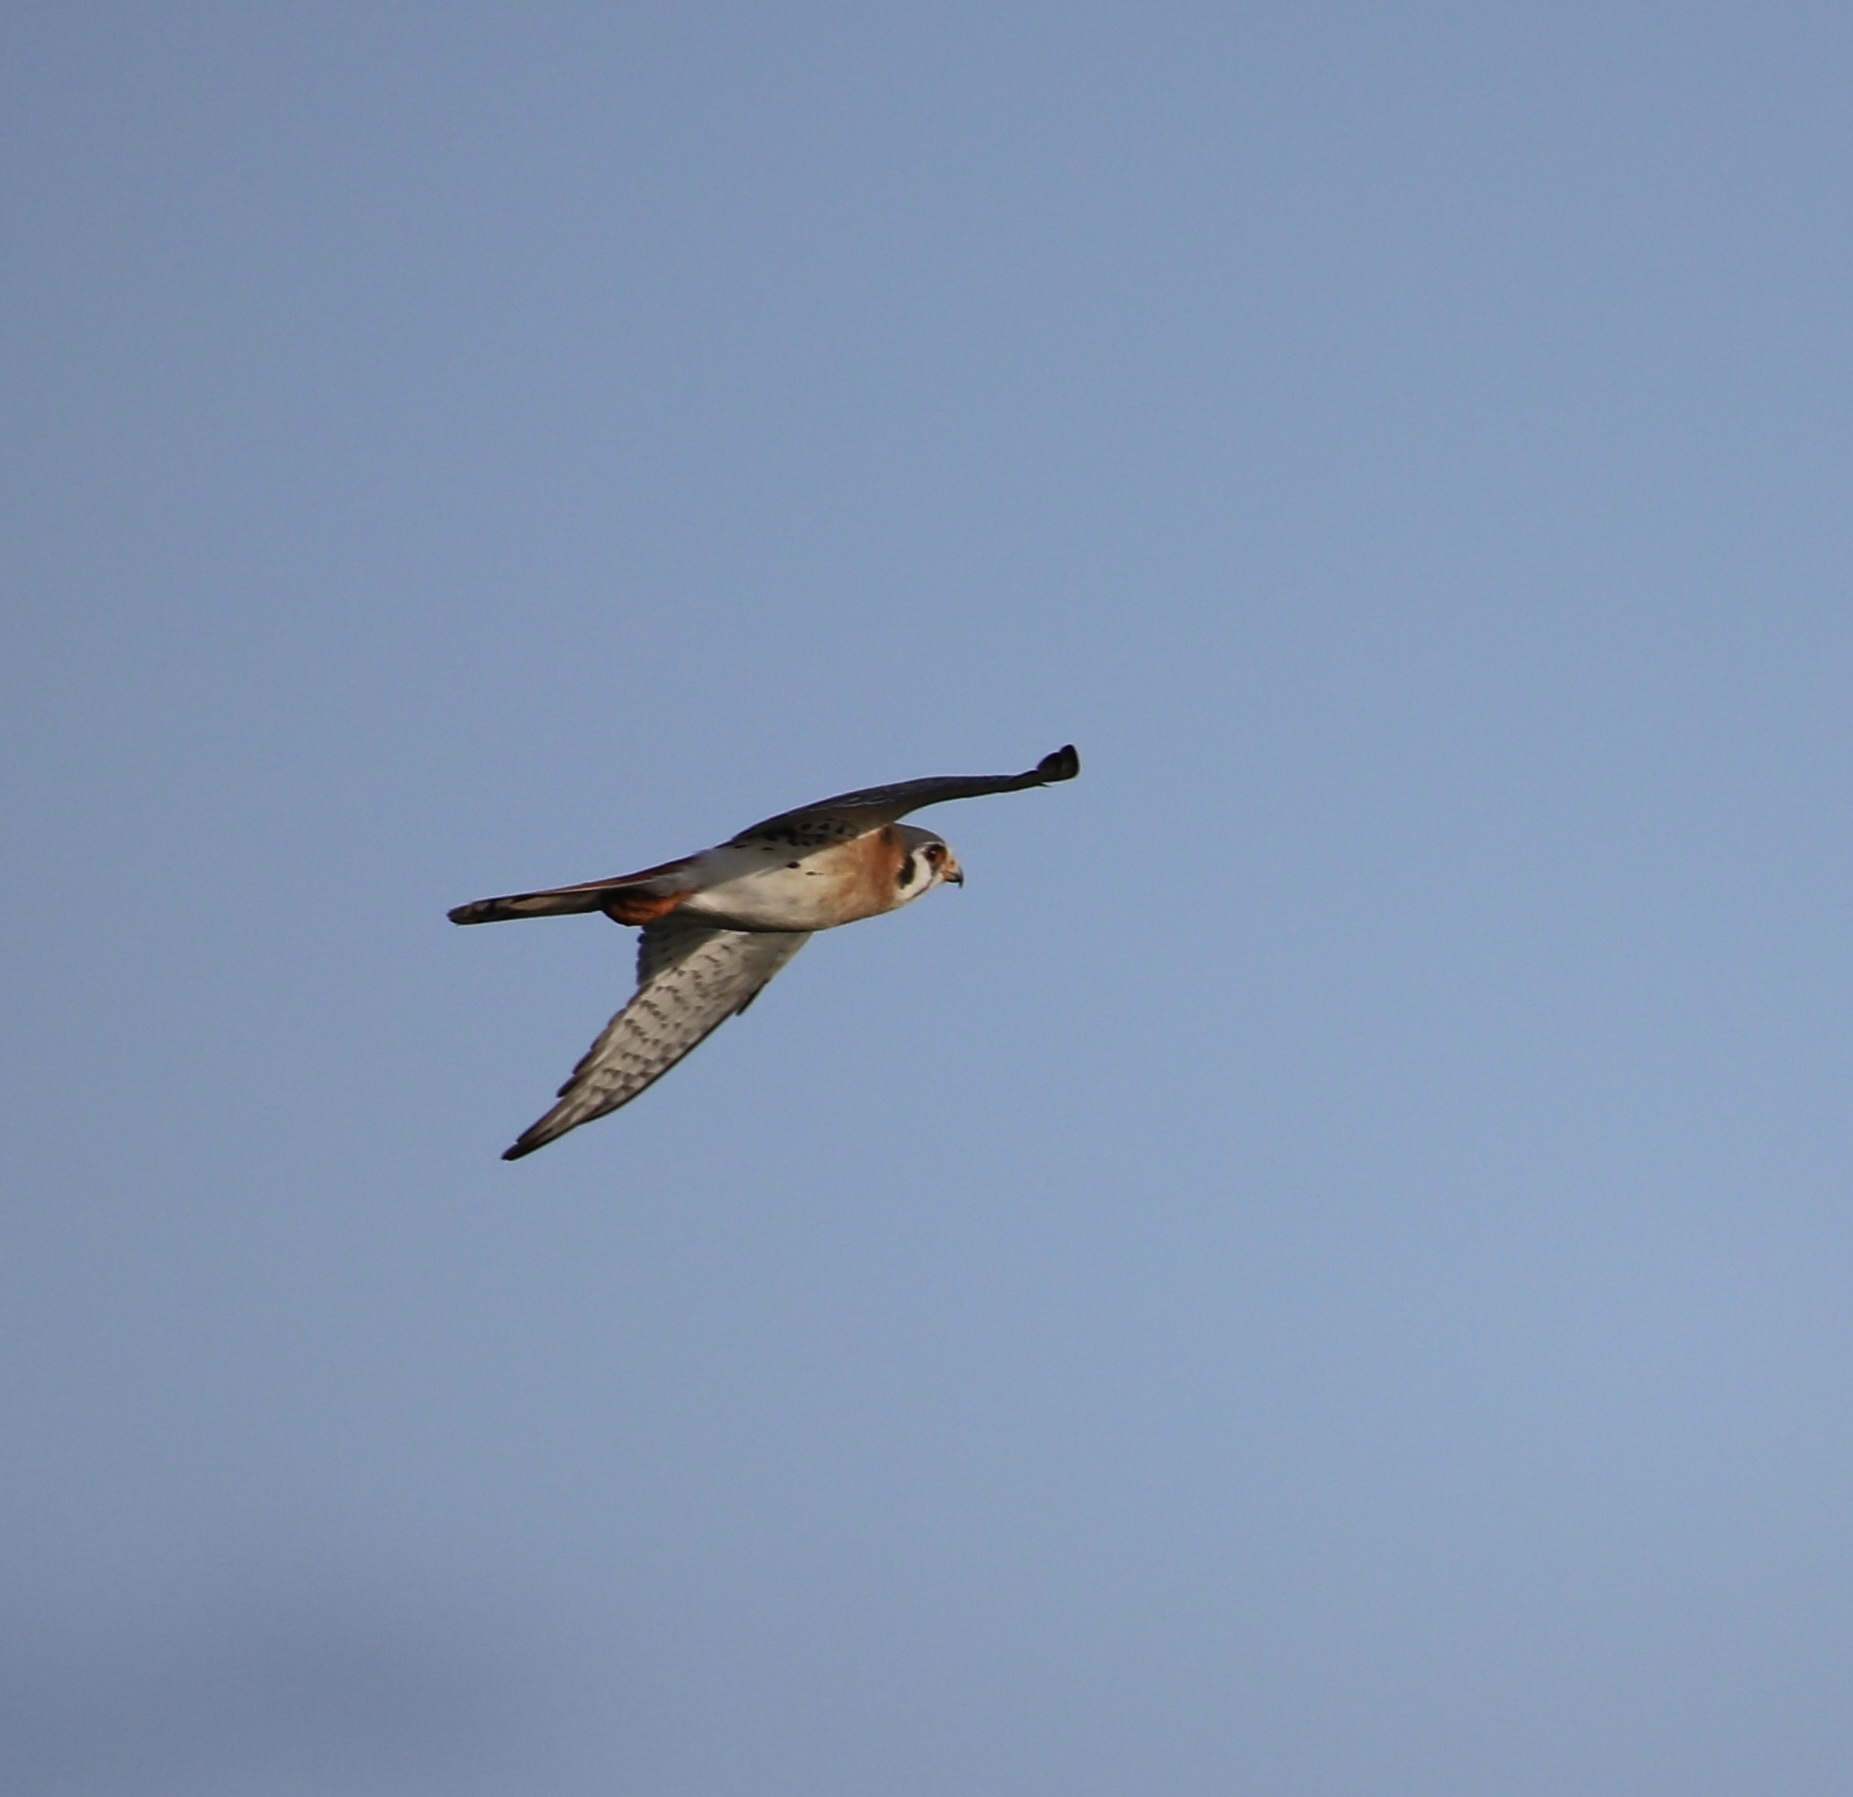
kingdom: Animalia
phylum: Chordata
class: Aves
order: Falconiformes
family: Falconidae
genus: Falco
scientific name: Falco sparverius
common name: American kestrel
